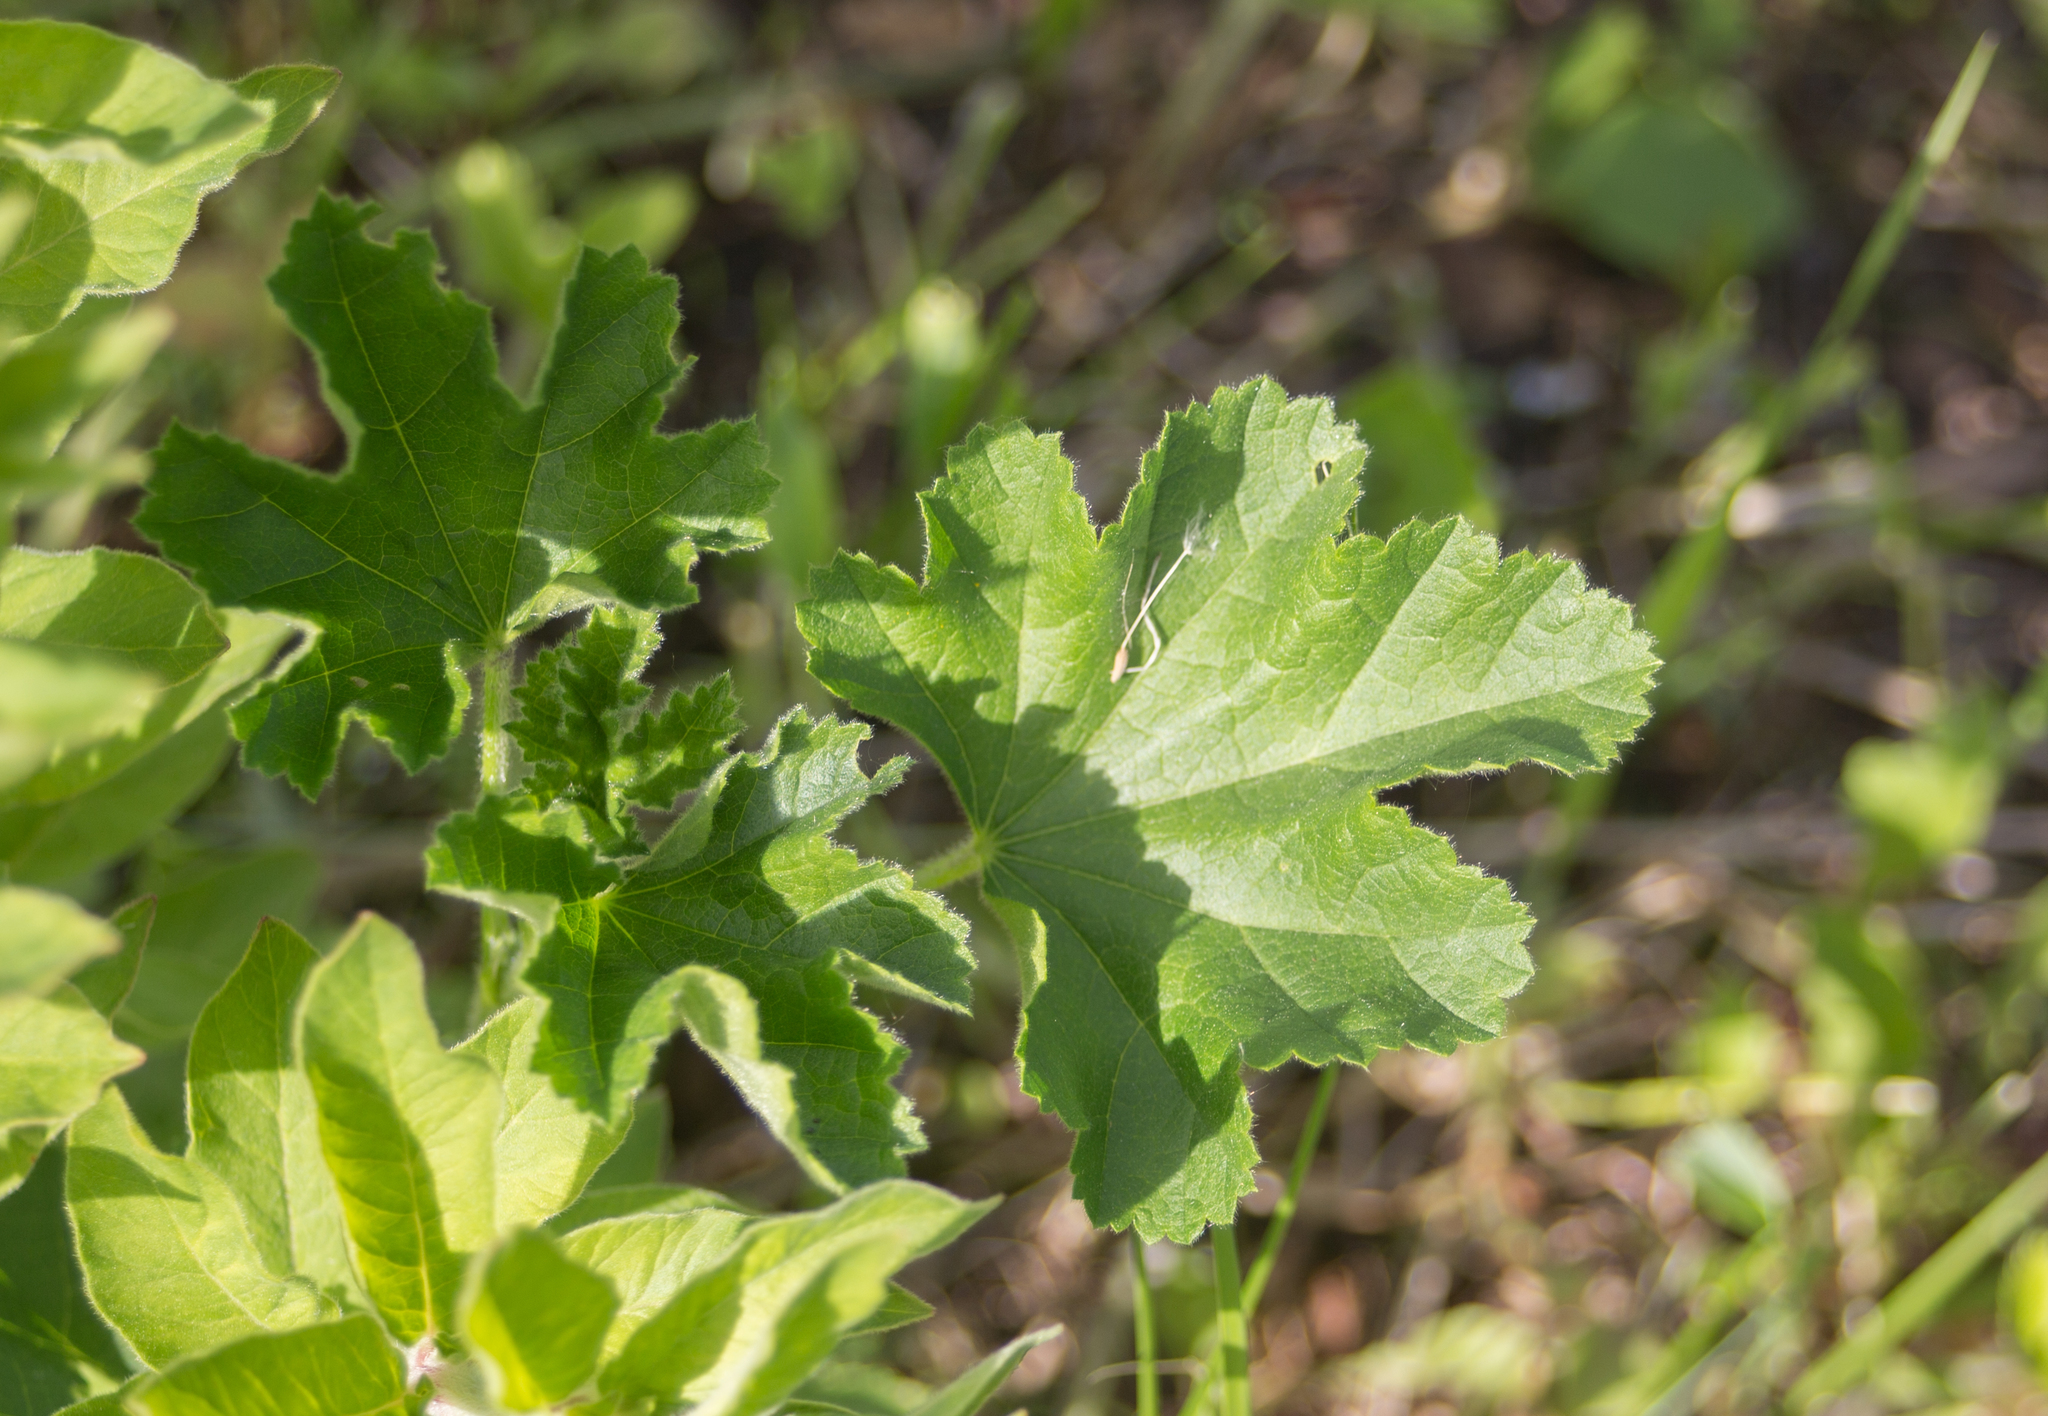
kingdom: Plantae
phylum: Tracheophyta
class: Magnoliopsida
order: Malvales
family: Malvaceae
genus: Malva
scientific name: Malva thuringiaca
